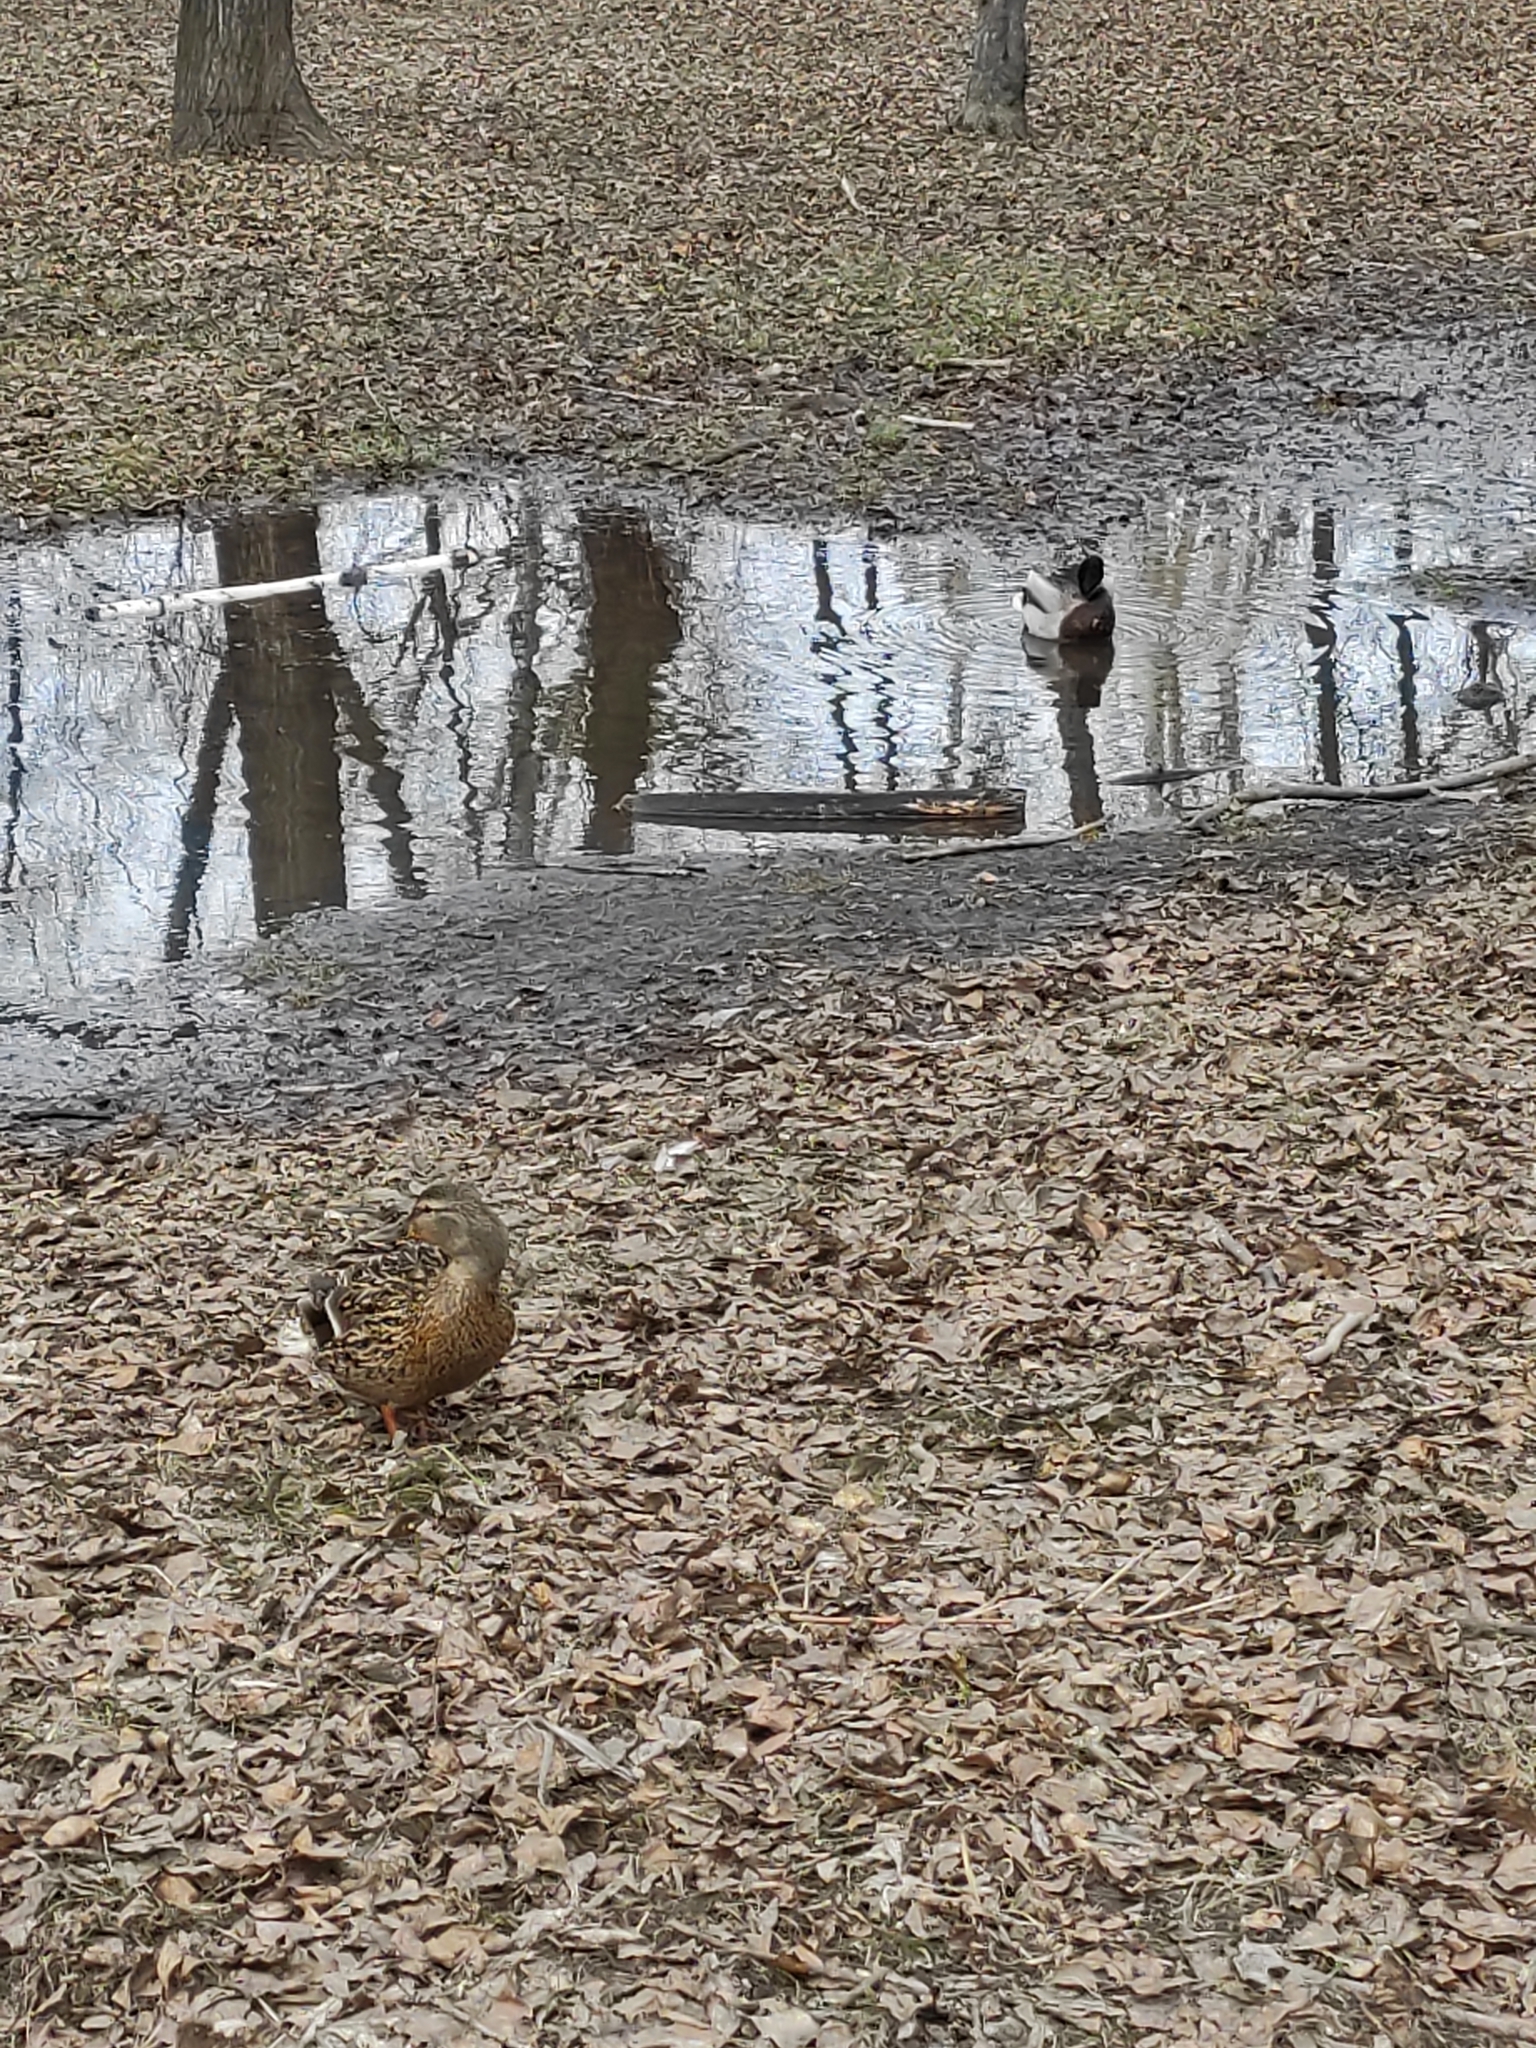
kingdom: Animalia
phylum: Chordata
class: Aves
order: Anseriformes
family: Anatidae
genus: Anas
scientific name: Anas platyrhynchos
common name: Mallard
